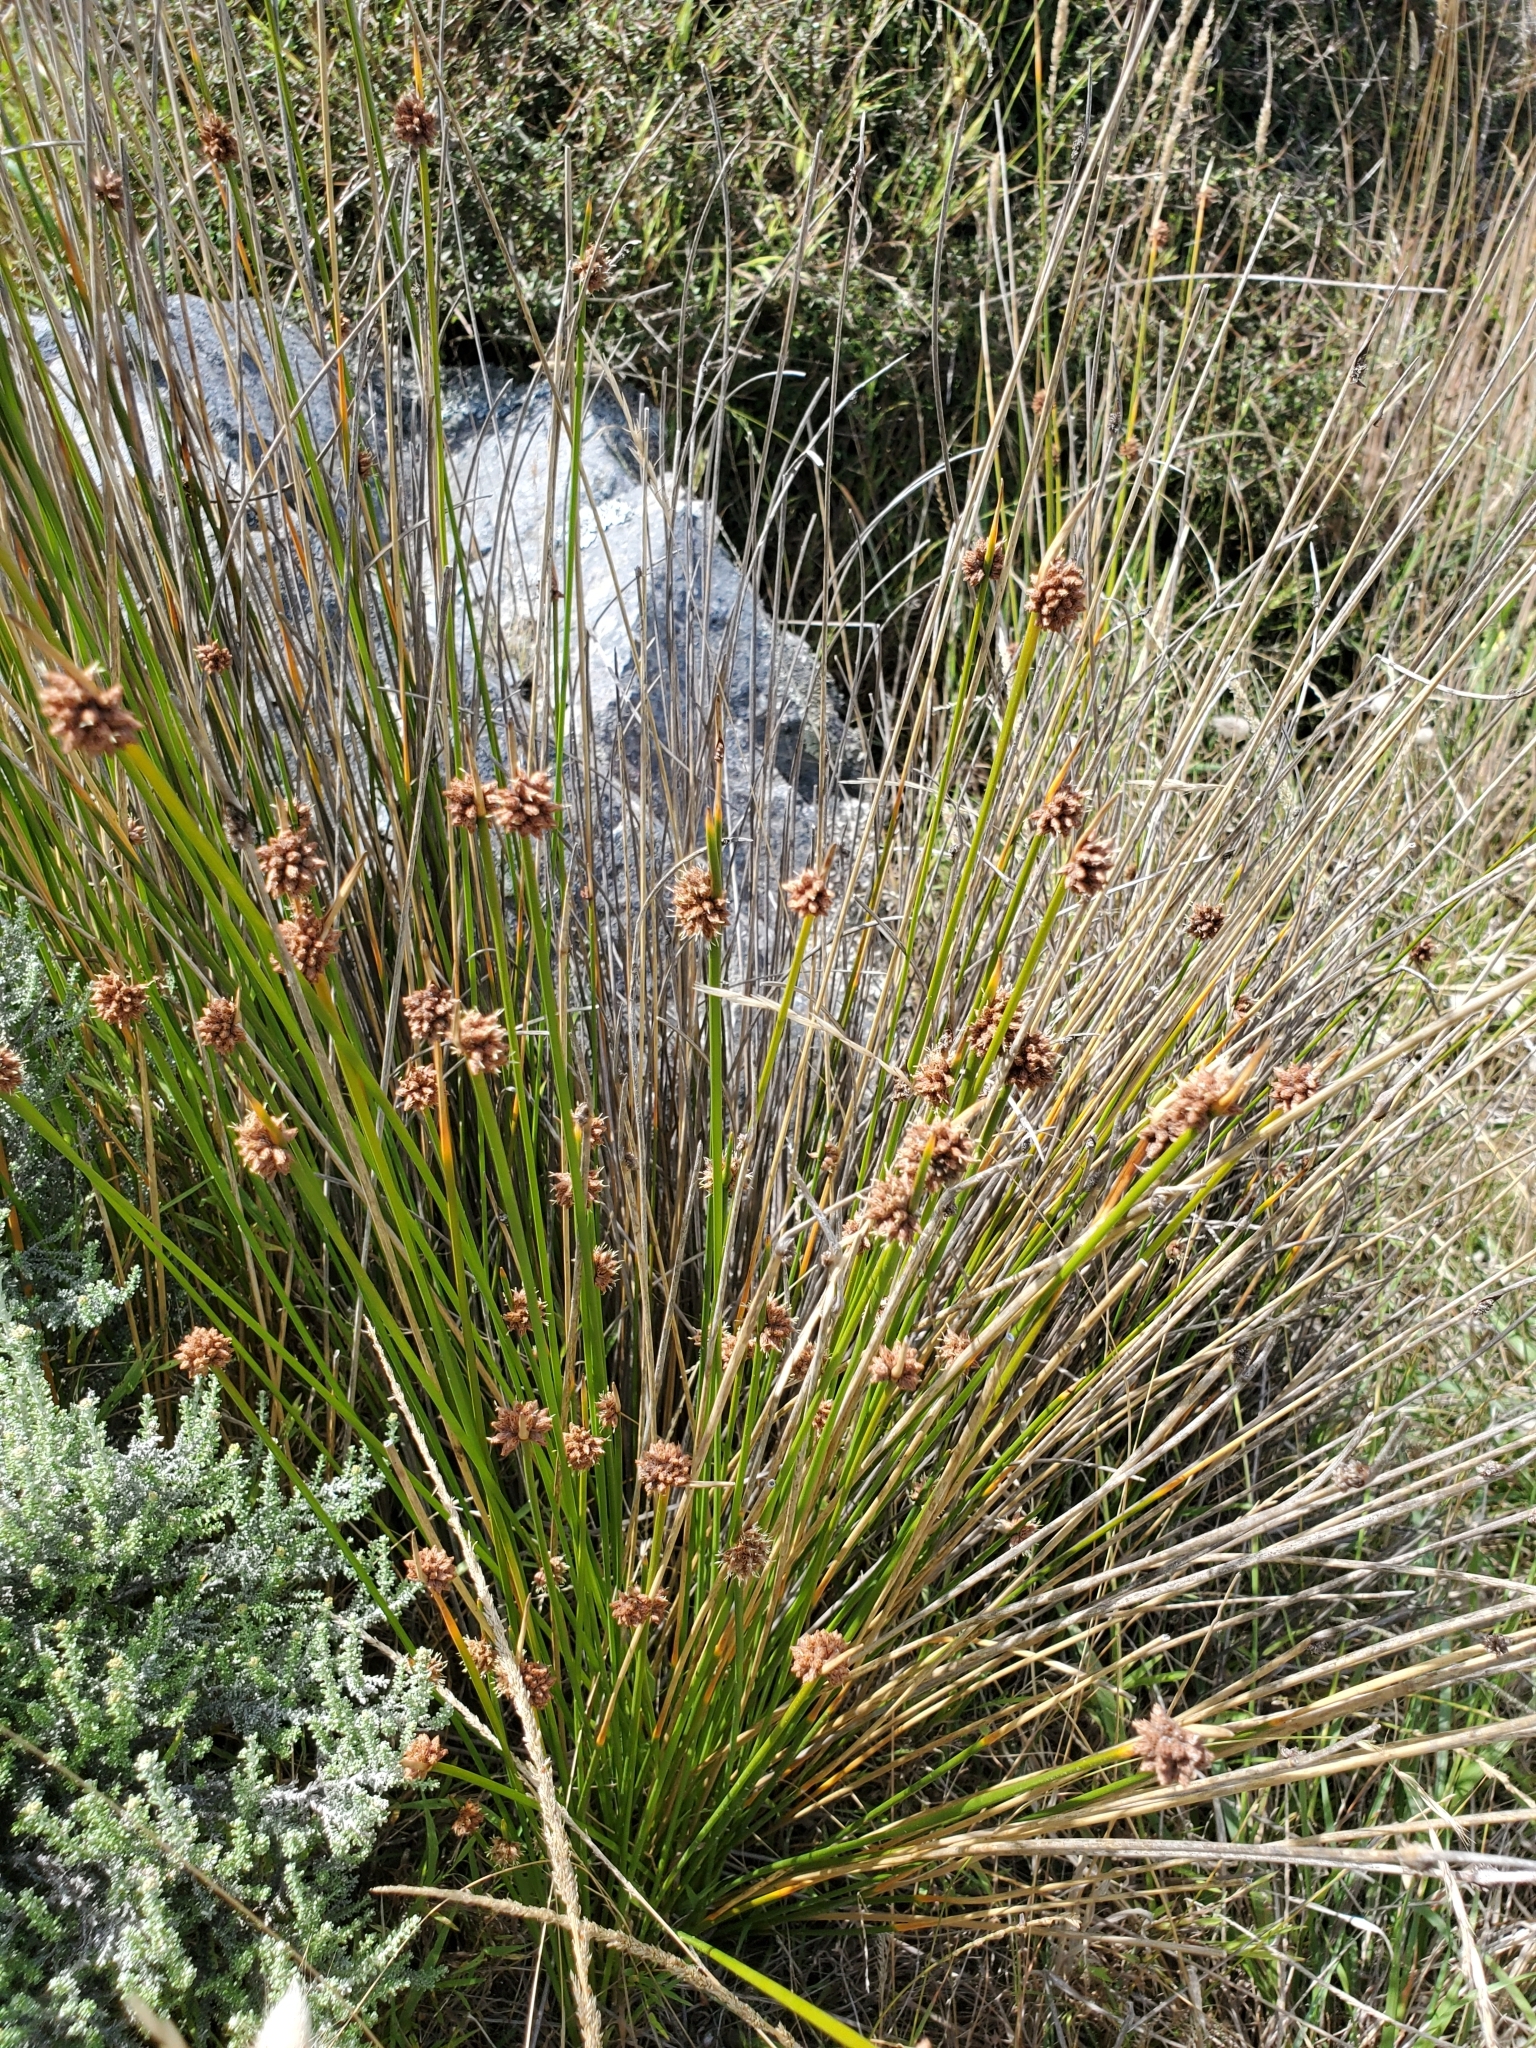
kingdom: Plantae
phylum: Tracheophyta
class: Liliopsida
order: Poales
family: Cyperaceae
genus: Ficinia
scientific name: Ficinia nodosa
